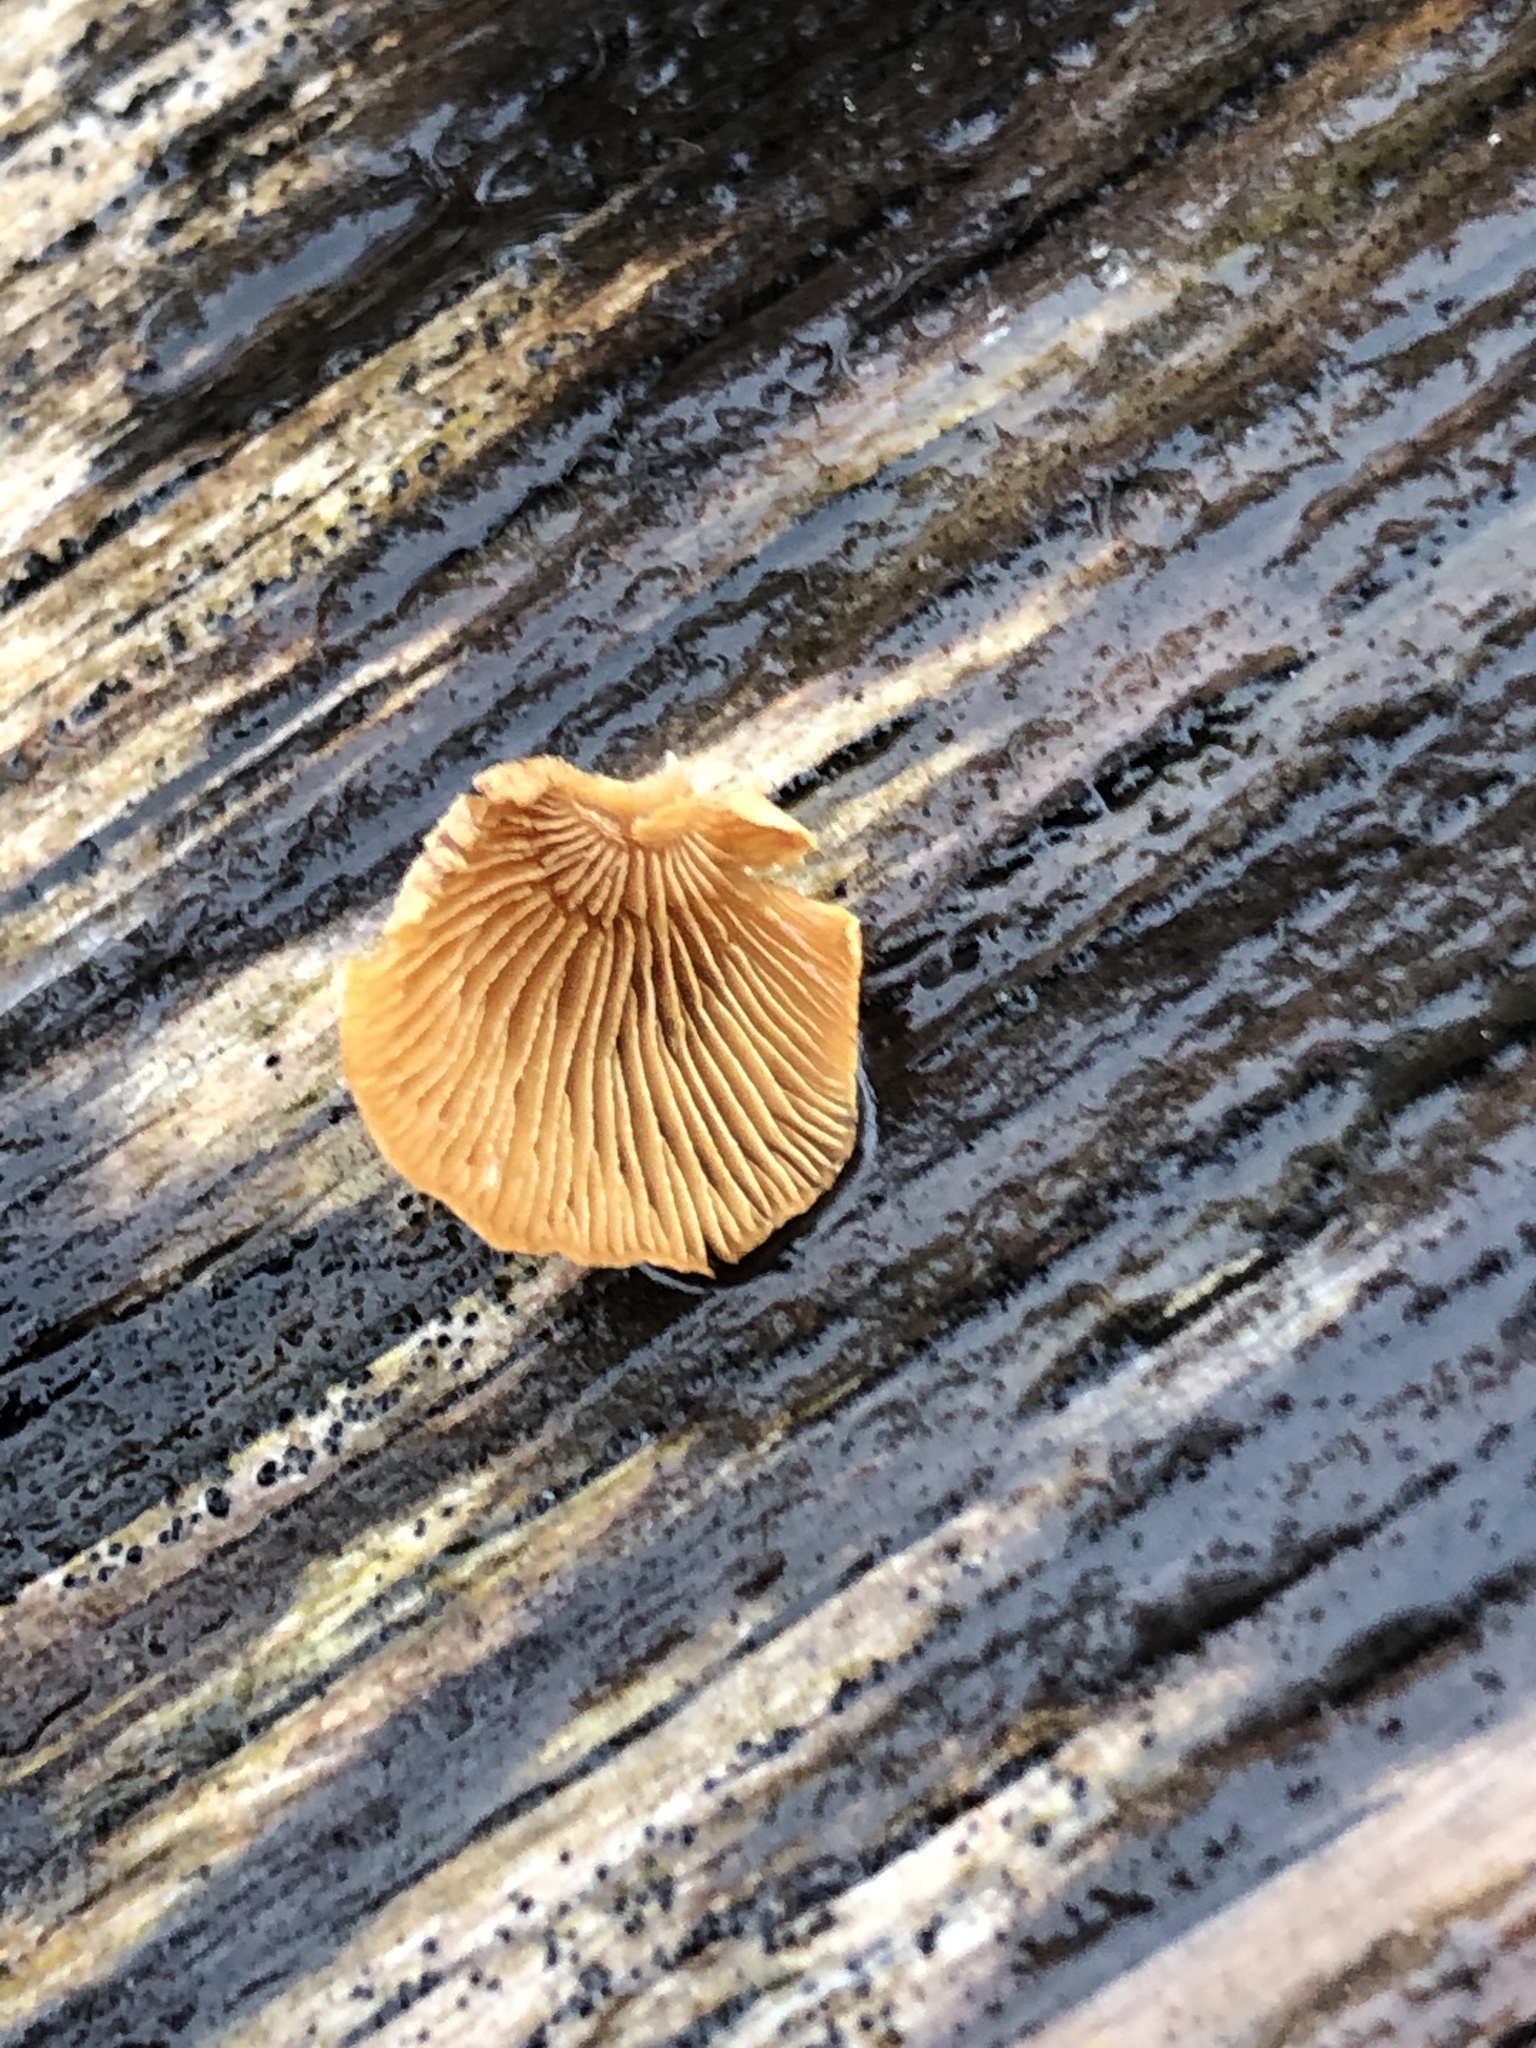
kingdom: Fungi
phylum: Basidiomycota
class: Agaricomycetes
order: Agaricales
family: Mycenaceae
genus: Panellus
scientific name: Panellus stipticus
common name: Bitter oysterling
